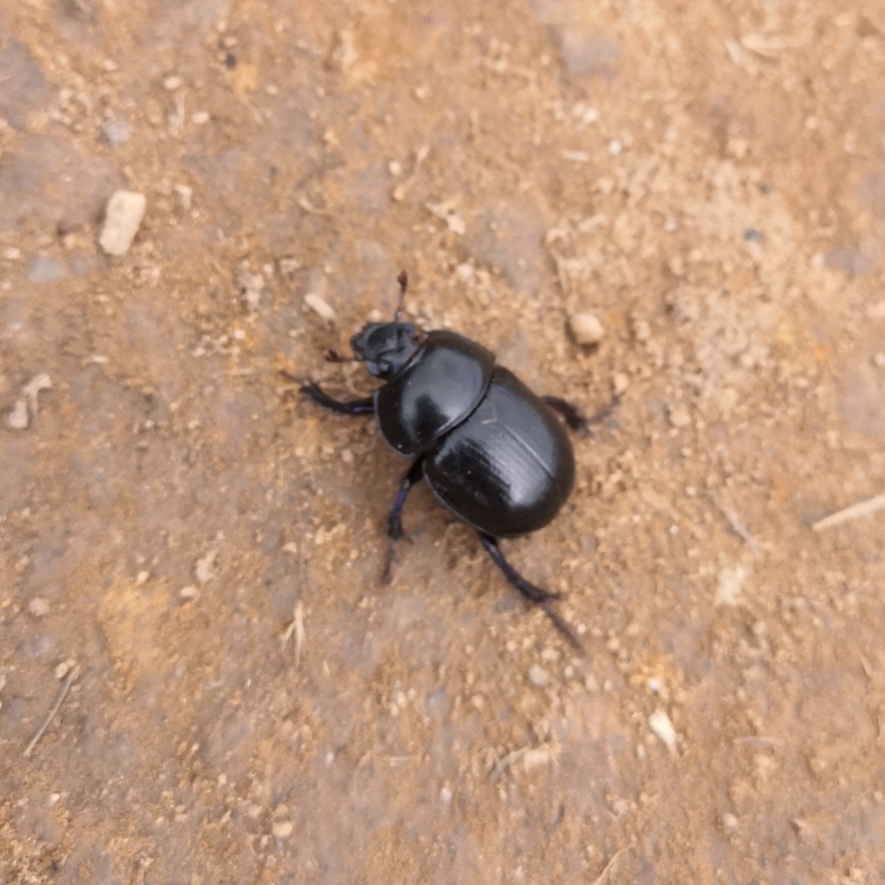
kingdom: Animalia
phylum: Arthropoda
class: Insecta
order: Coleoptera
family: Geotrupidae
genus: Anoplotrupes
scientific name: Anoplotrupes stercorosus
